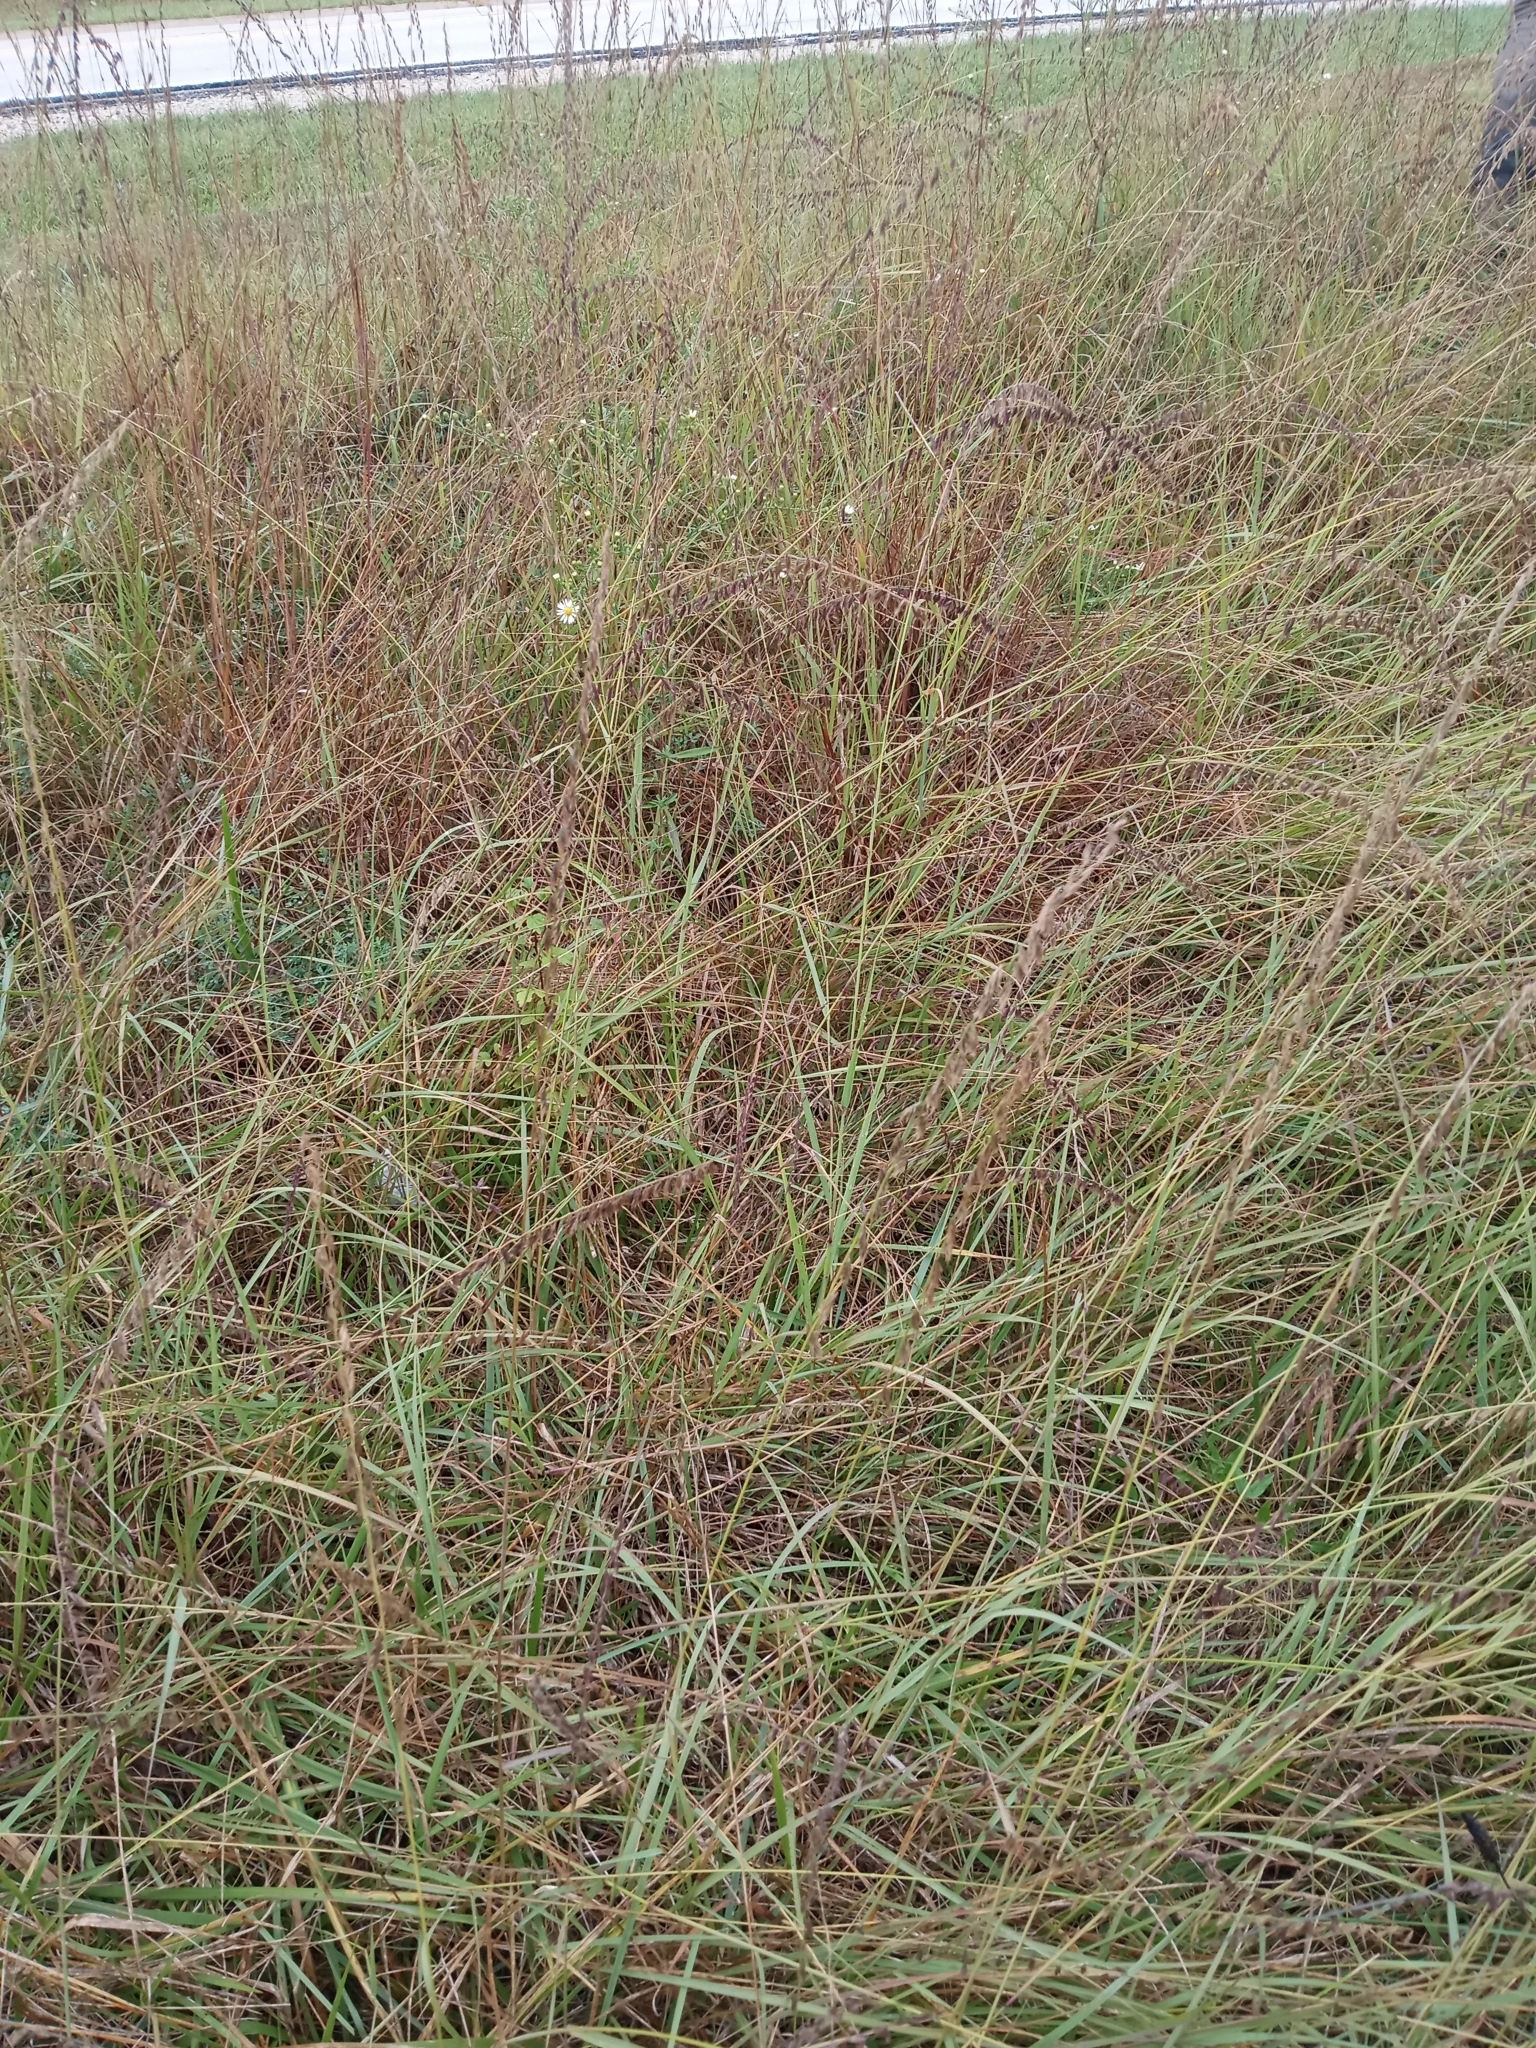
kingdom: Plantae
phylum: Tracheophyta
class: Liliopsida
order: Poales
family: Poaceae
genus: Bouteloua
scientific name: Bouteloua curtipendula
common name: Side-oats grama
